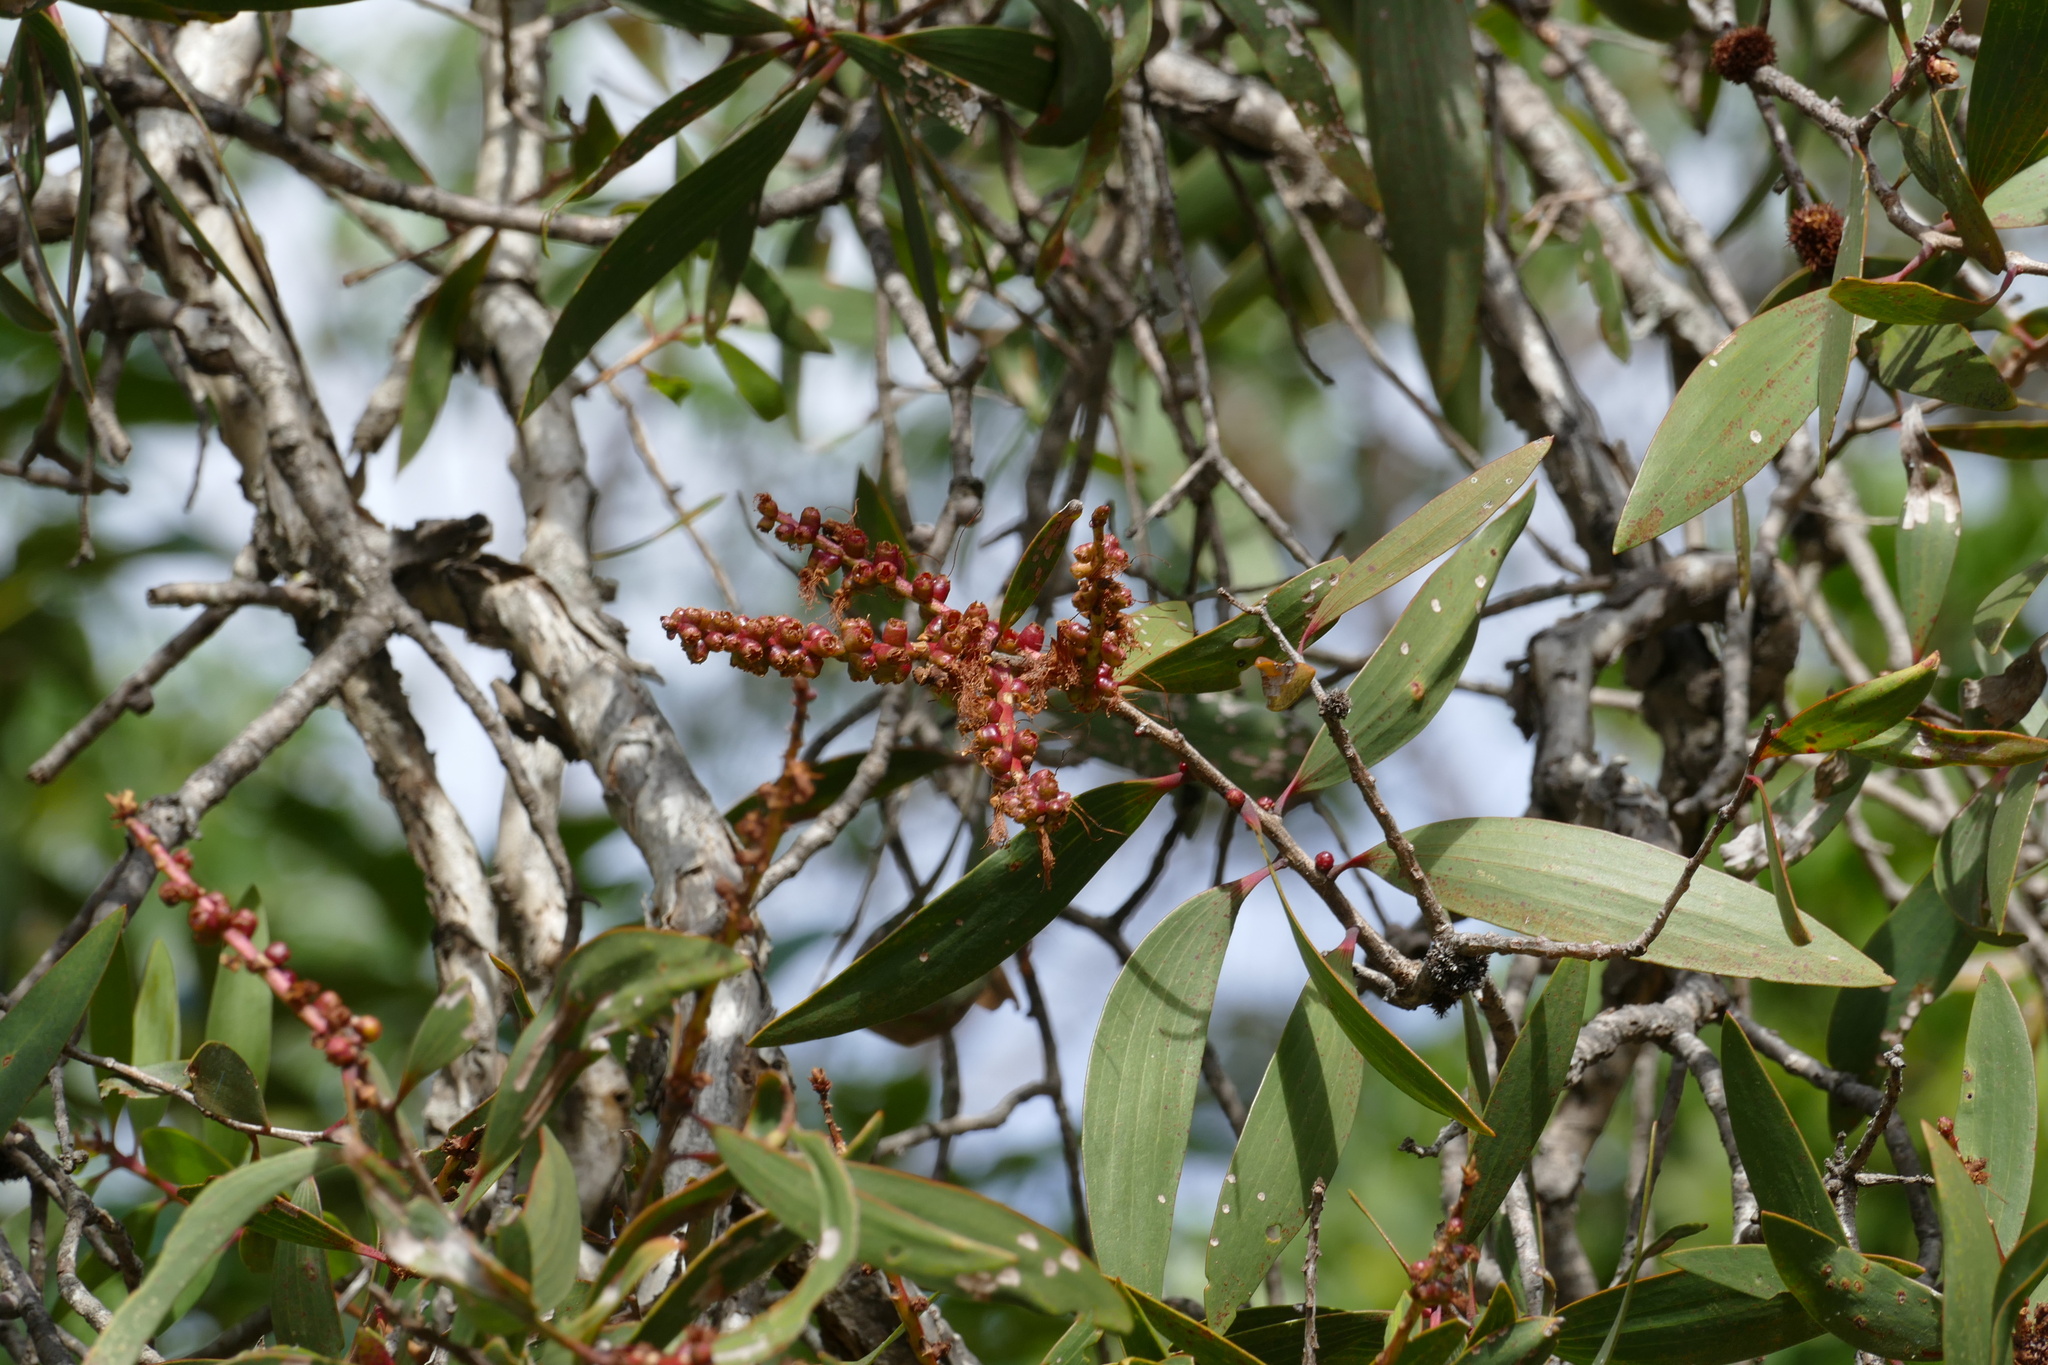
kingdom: Plantae
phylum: Tracheophyta
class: Magnoliopsida
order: Myrtales
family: Myrtaceae
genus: Melaleuca
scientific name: Melaleuca quinquenervia
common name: Punktree
